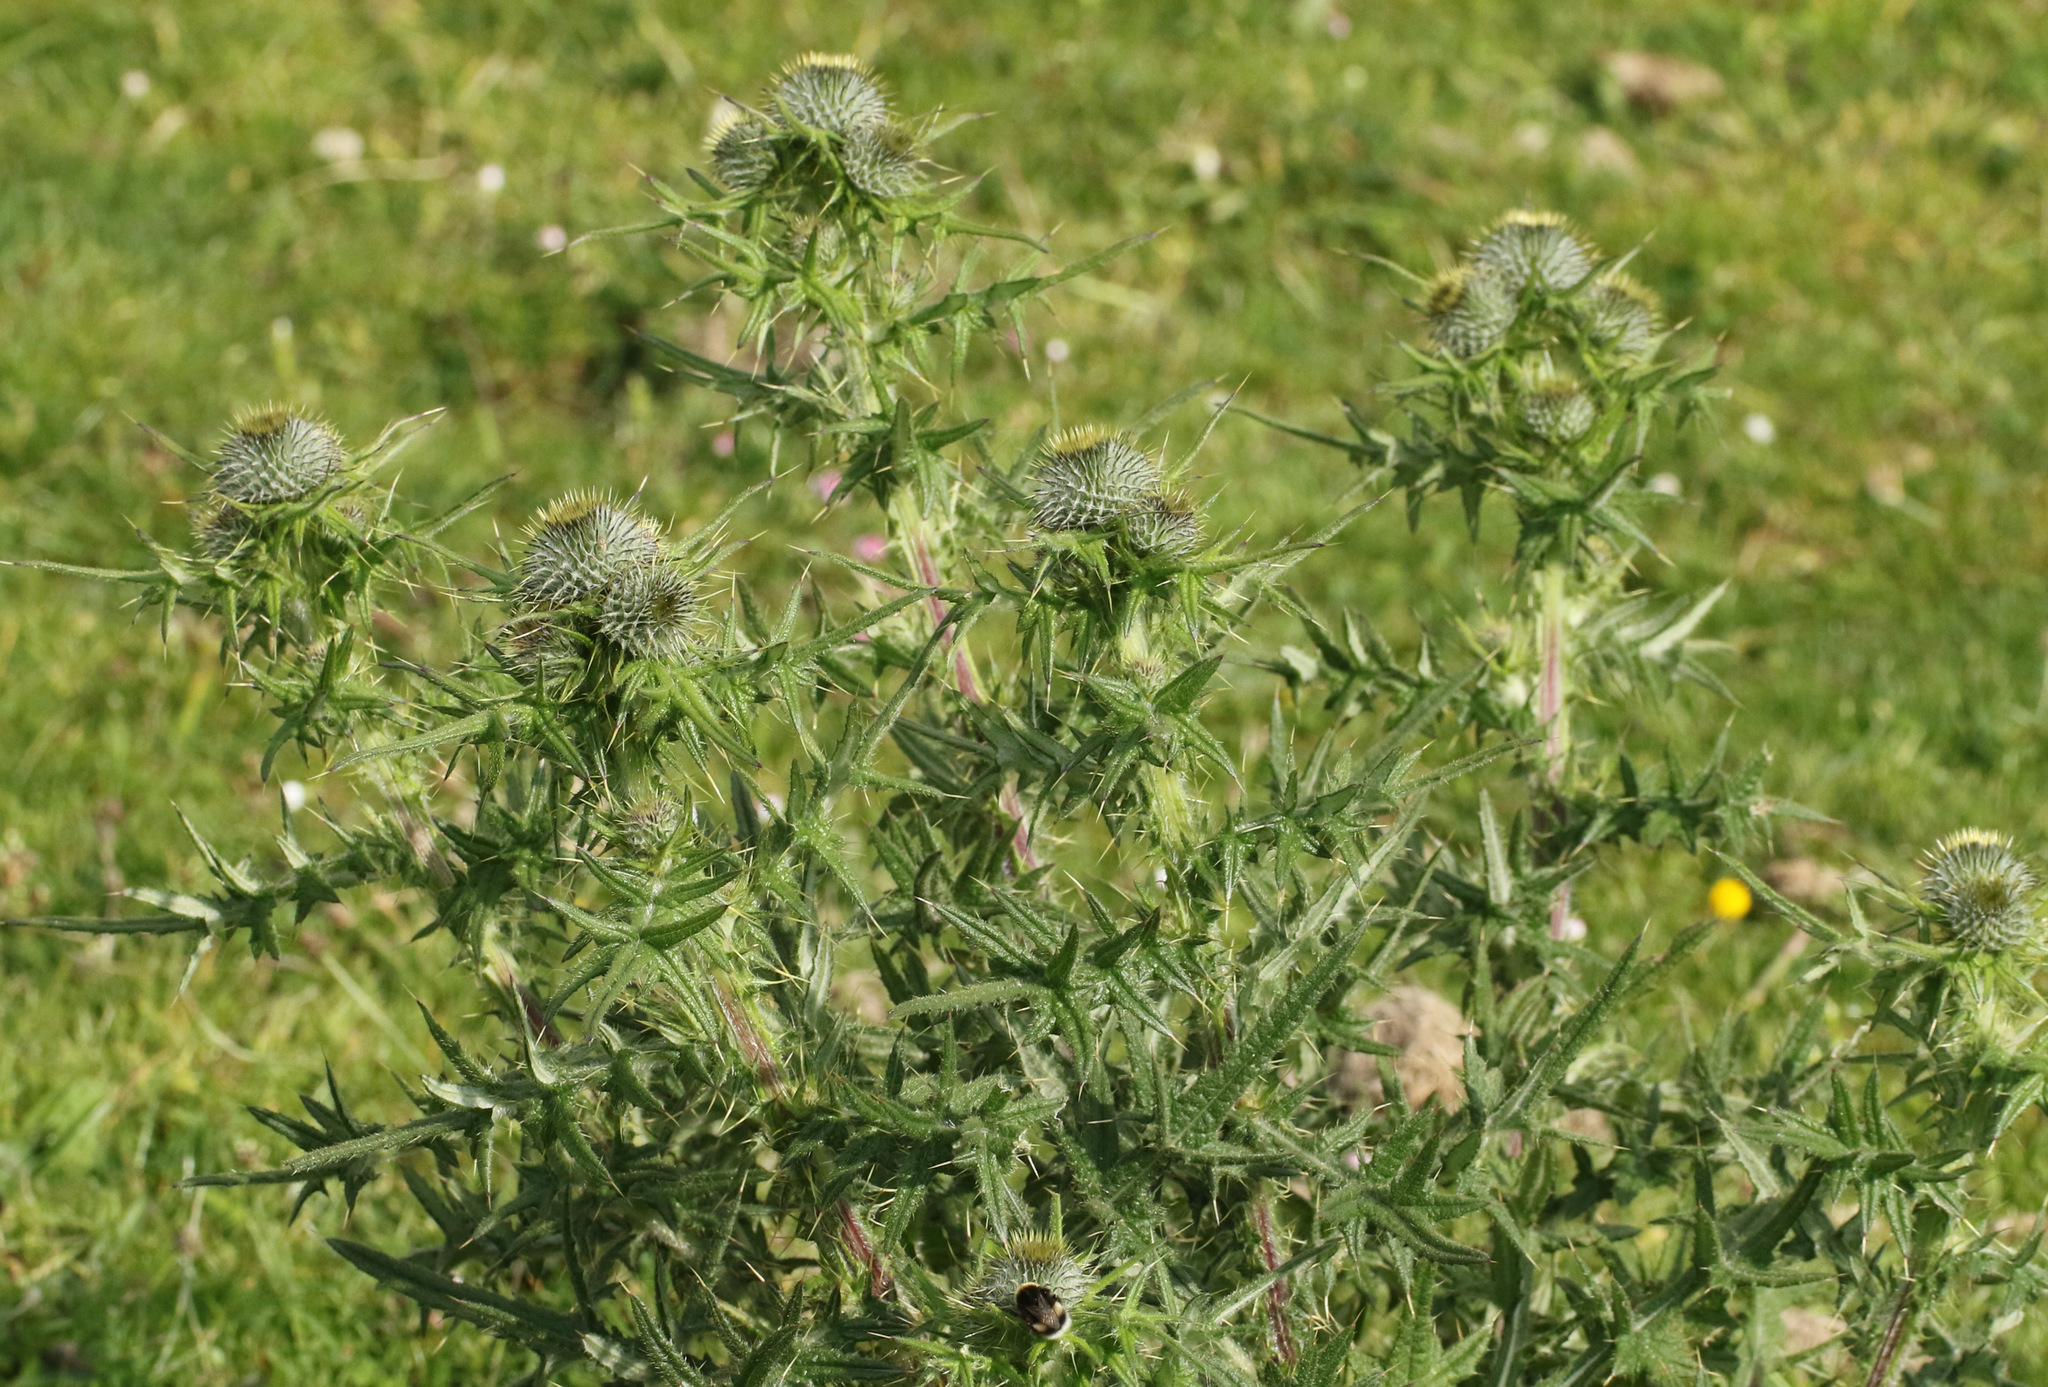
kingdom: Plantae
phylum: Tracheophyta
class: Magnoliopsida
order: Asterales
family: Asteraceae
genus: Cirsium
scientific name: Cirsium vulgare
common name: Bull thistle
